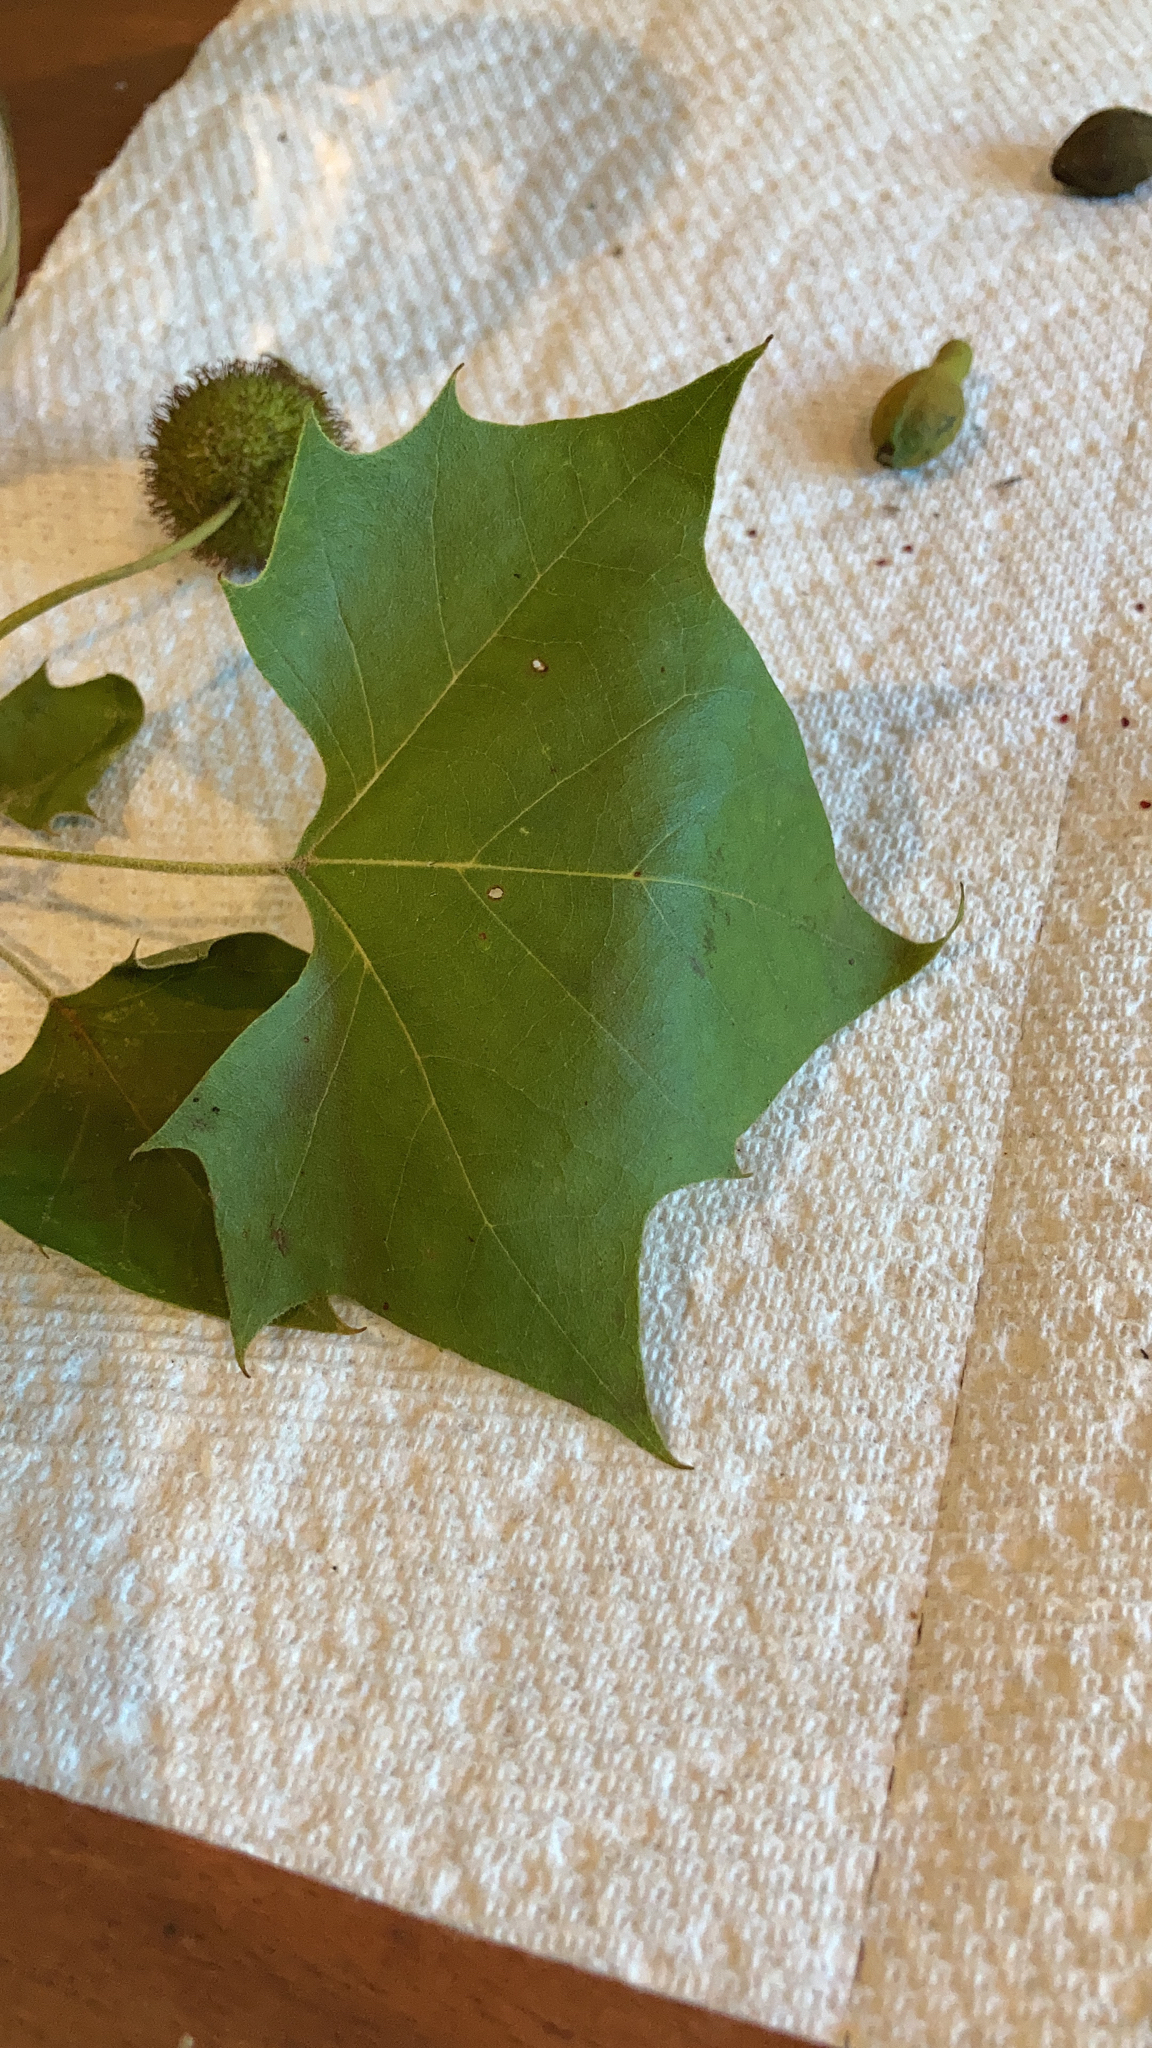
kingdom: Plantae
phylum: Tracheophyta
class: Magnoliopsida
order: Proteales
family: Platanaceae
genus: Platanus
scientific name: Platanus occidentalis
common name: American sycamore
